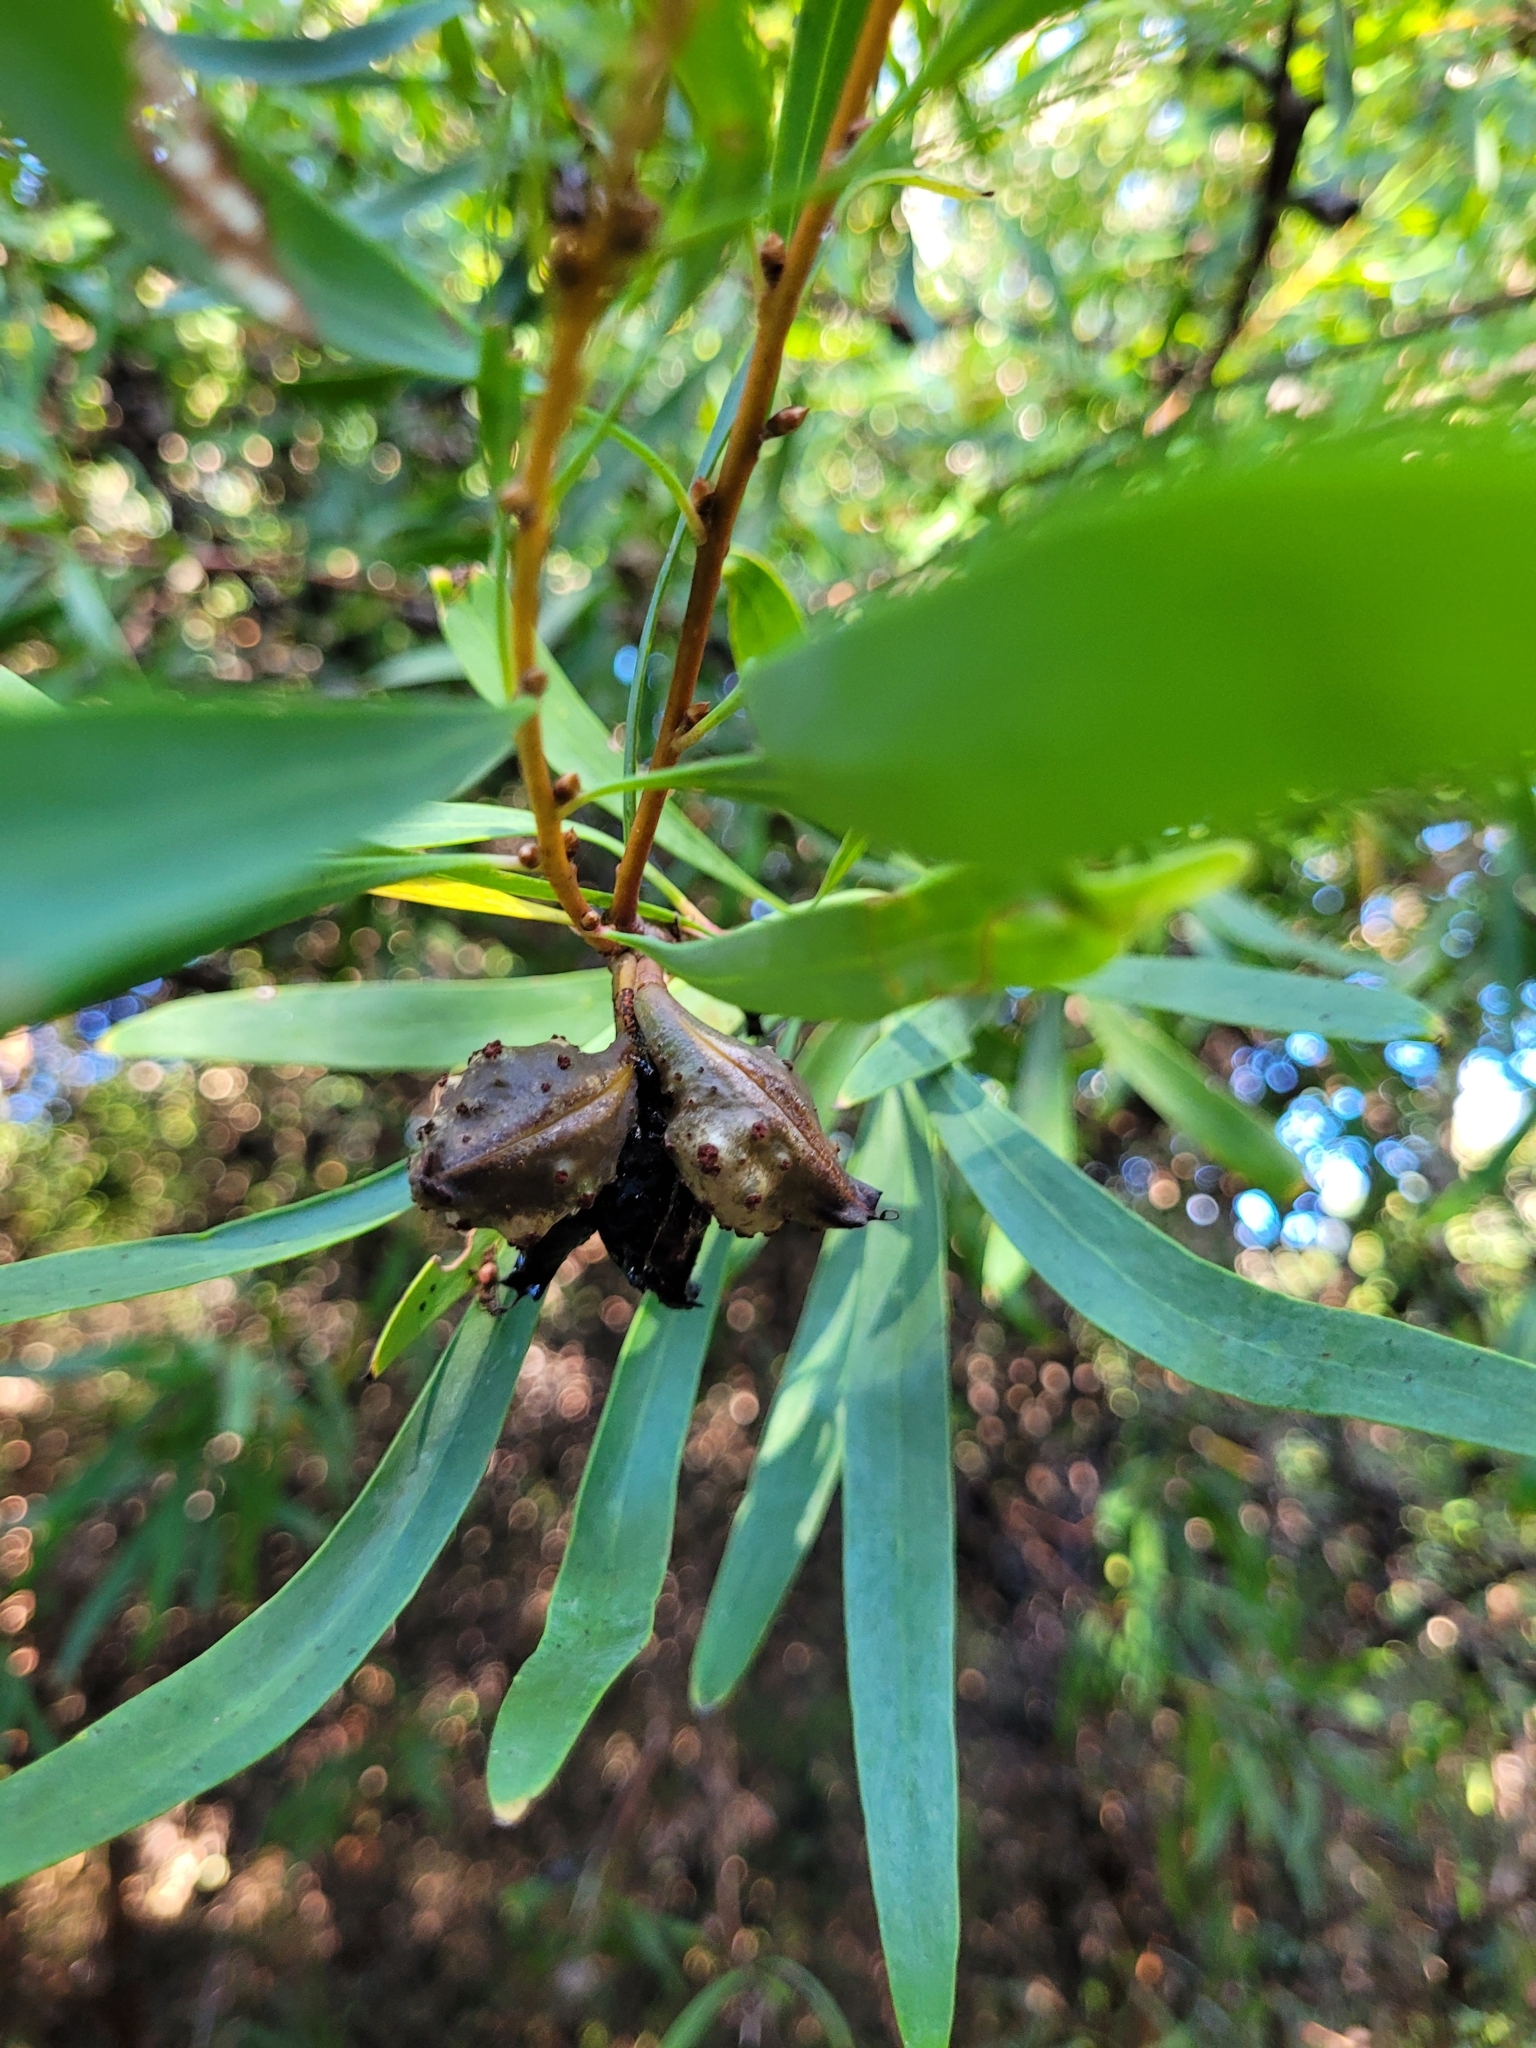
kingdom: Plantae
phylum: Tracheophyta
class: Magnoliopsida
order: Proteales
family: Proteaceae
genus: Hakea
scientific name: Hakea salicifolia
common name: Willow hakea
